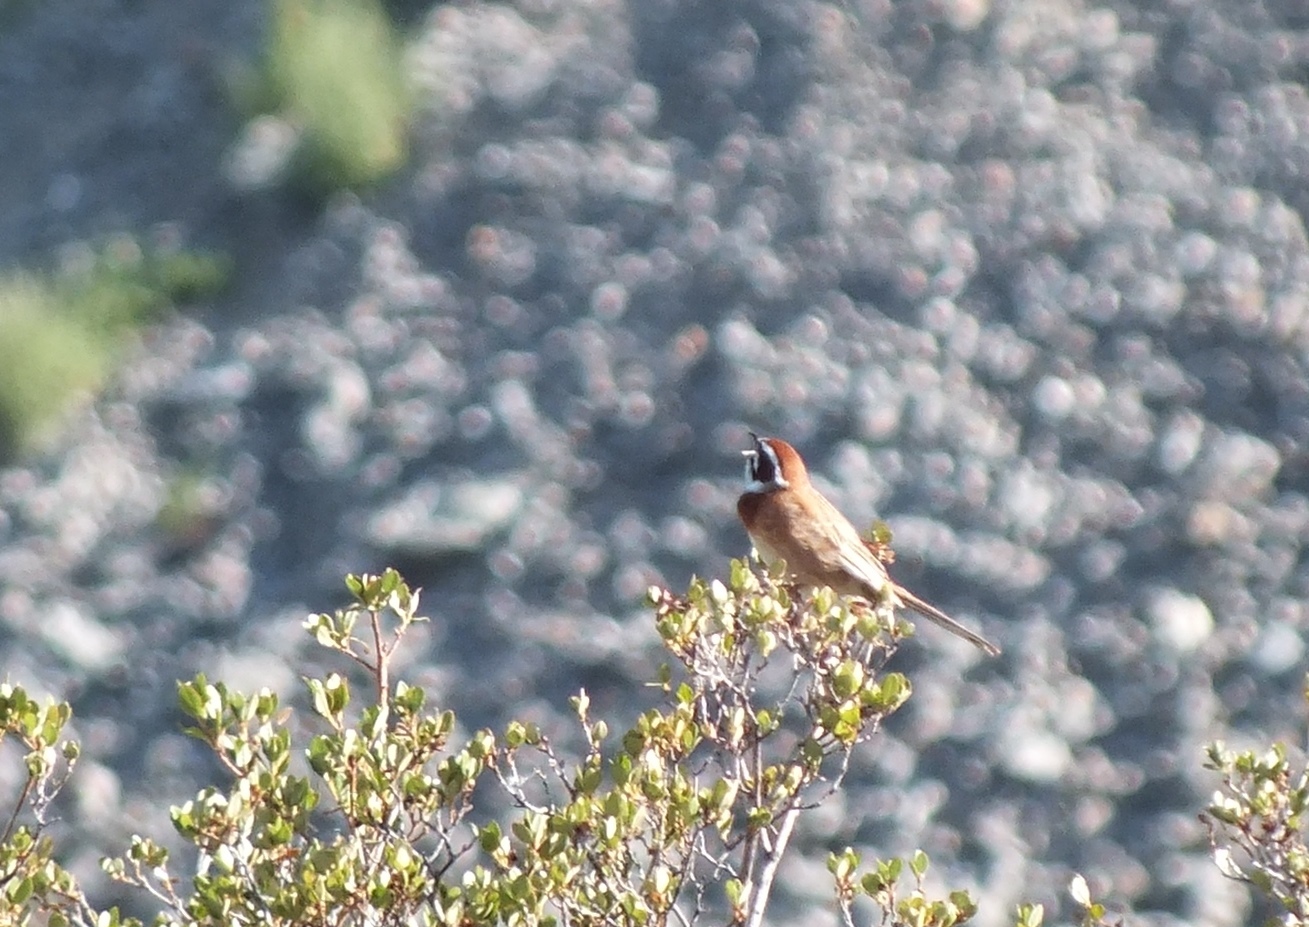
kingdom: Animalia
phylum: Chordata
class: Aves
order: Passeriformes
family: Emberizidae
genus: Emberiza
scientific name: Emberiza cioides
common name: Meadow bunting
